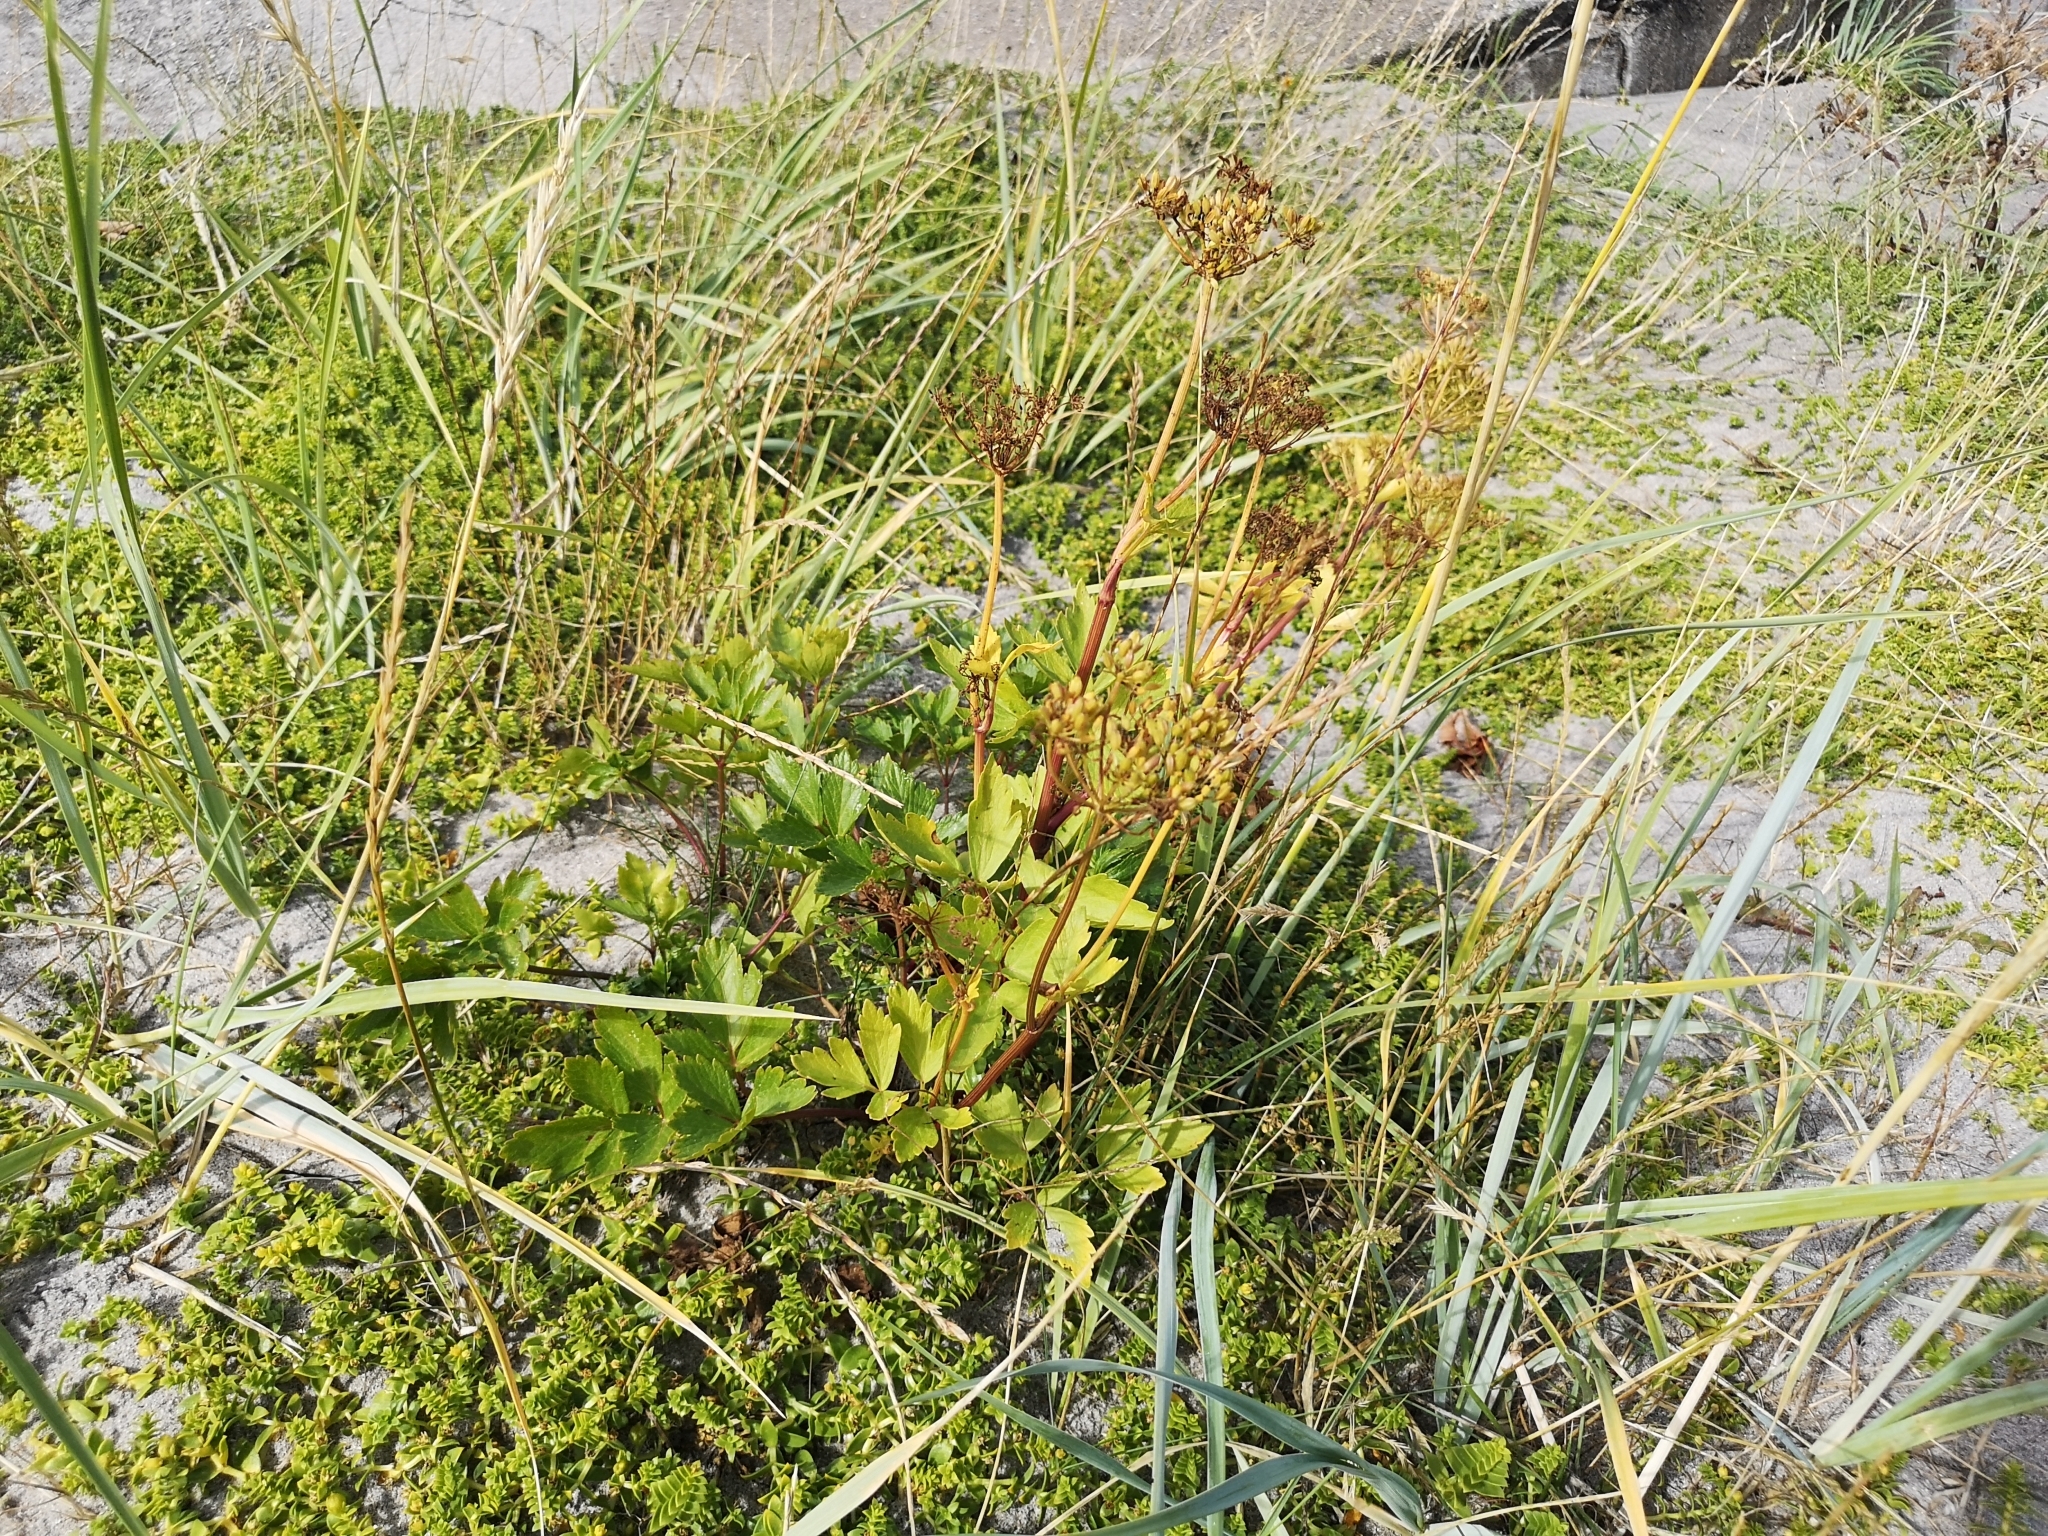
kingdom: Plantae
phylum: Tracheophyta
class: Magnoliopsida
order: Apiales
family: Apiaceae
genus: Ligusticum
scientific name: Ligusticum scothicum
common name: Beach lovage
